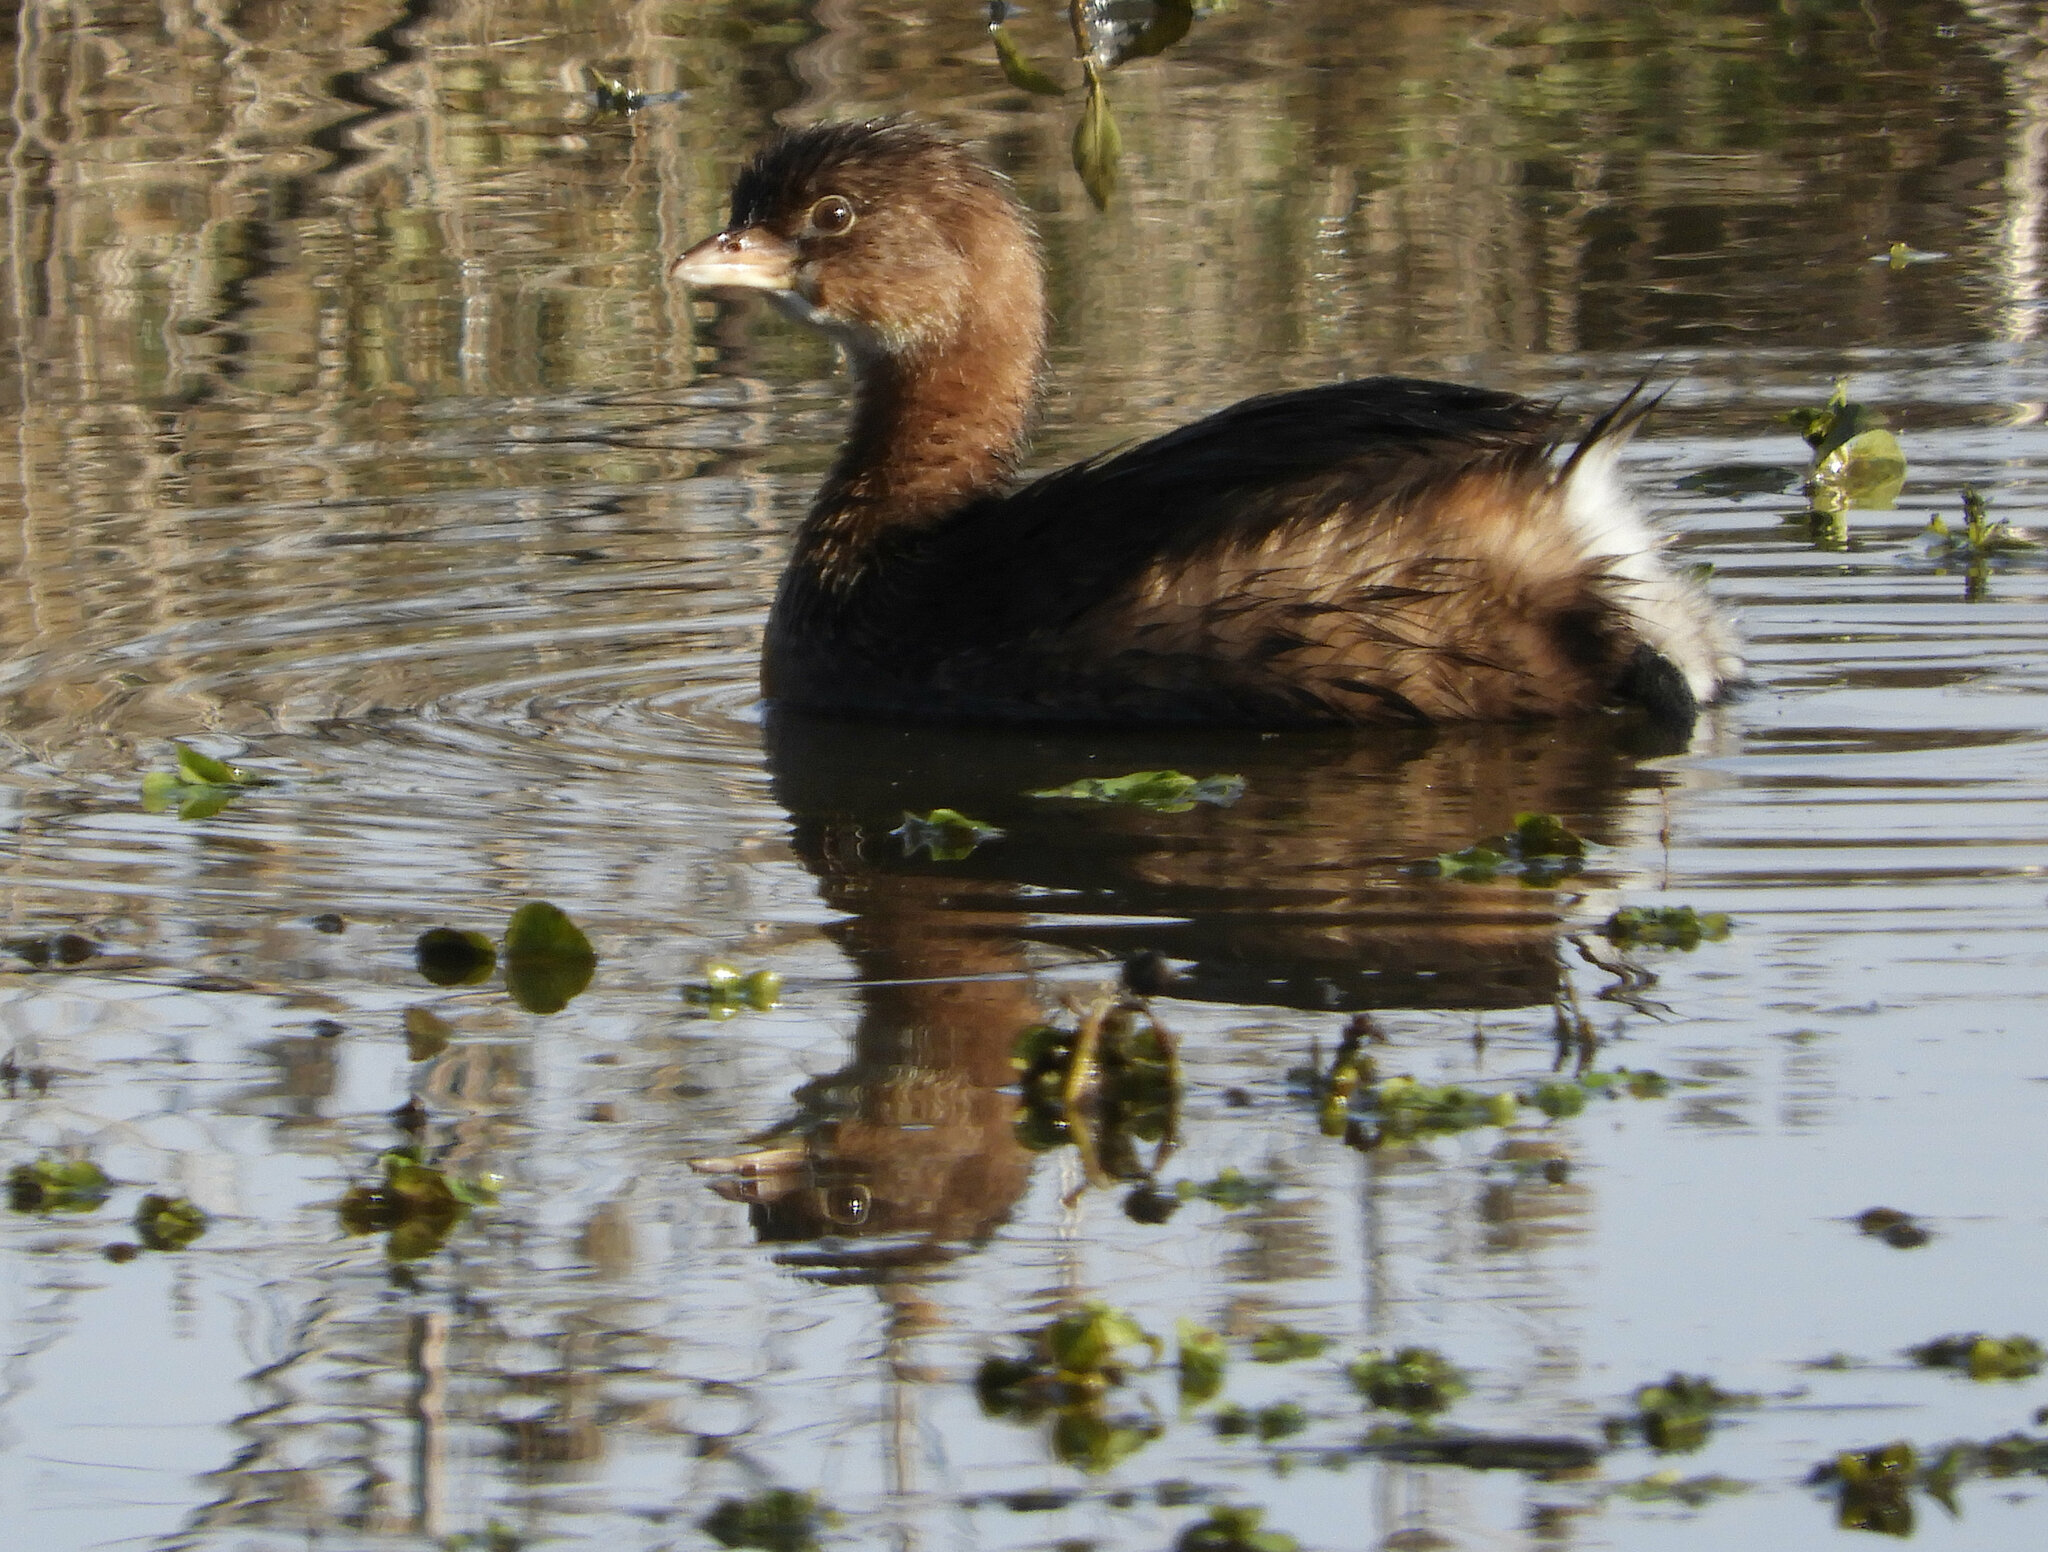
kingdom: Animalia
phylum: Chordata
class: Aves
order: Podicipediformes
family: Podicipedidae
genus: Podilymbus
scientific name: Podilymbus podiceps
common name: Pied-billed grebe
